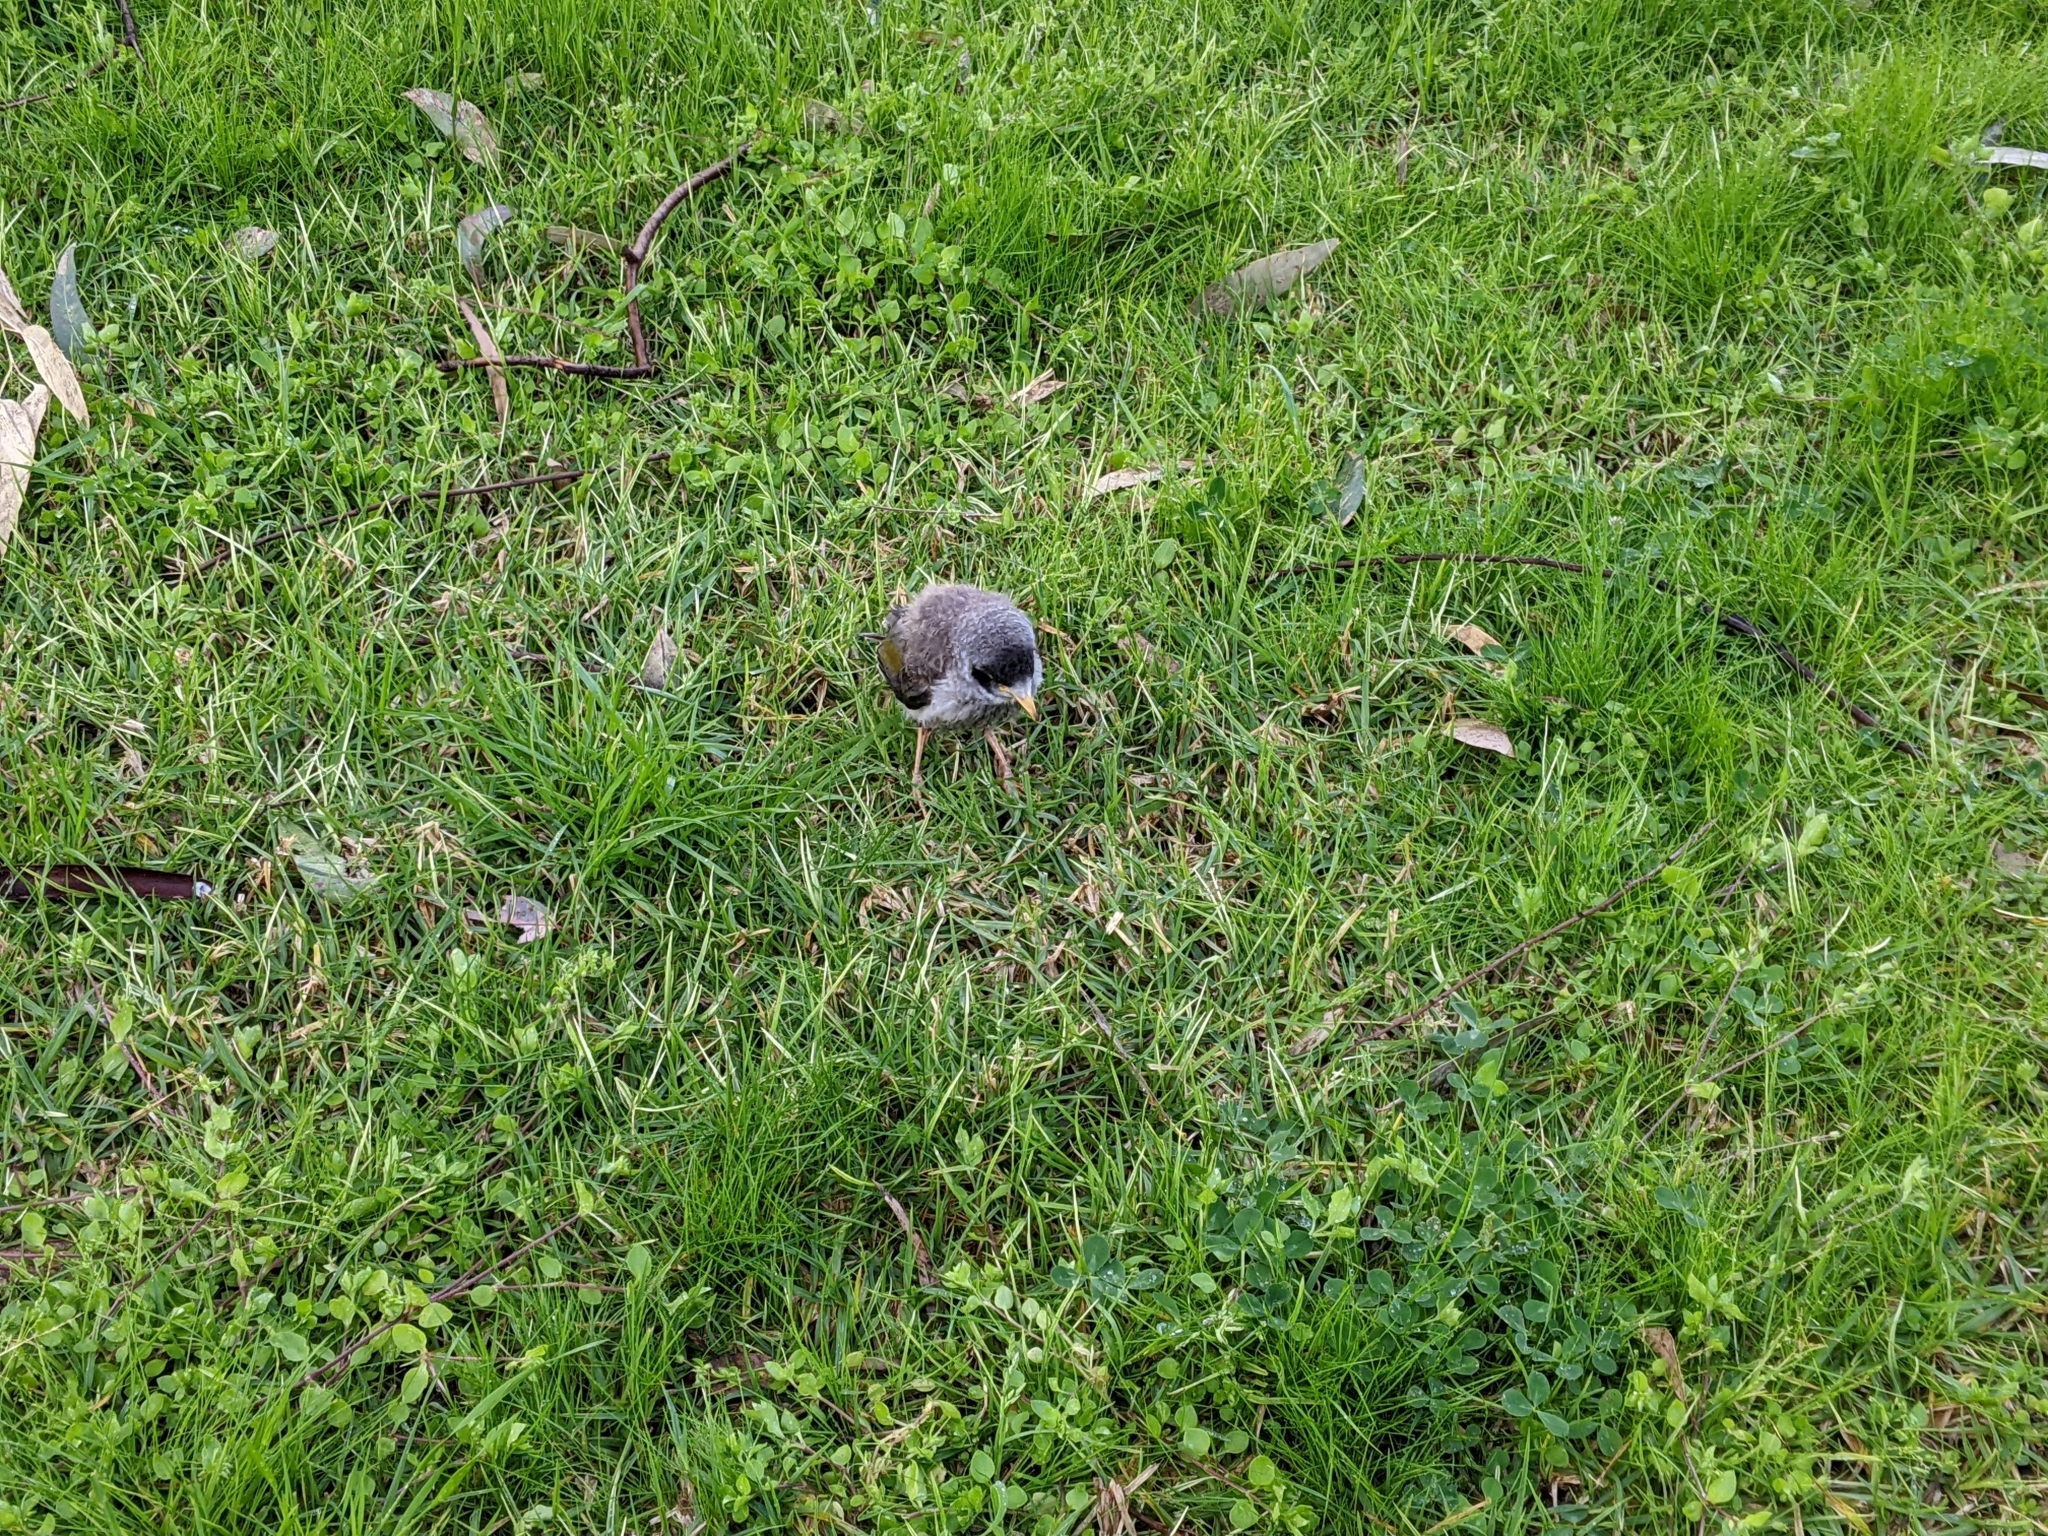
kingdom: Animalia
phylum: Chordata
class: Aves
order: Passeriformes
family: Meliphagidae
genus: Manorina
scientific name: Manorina melanocephala
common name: Noisy miner
